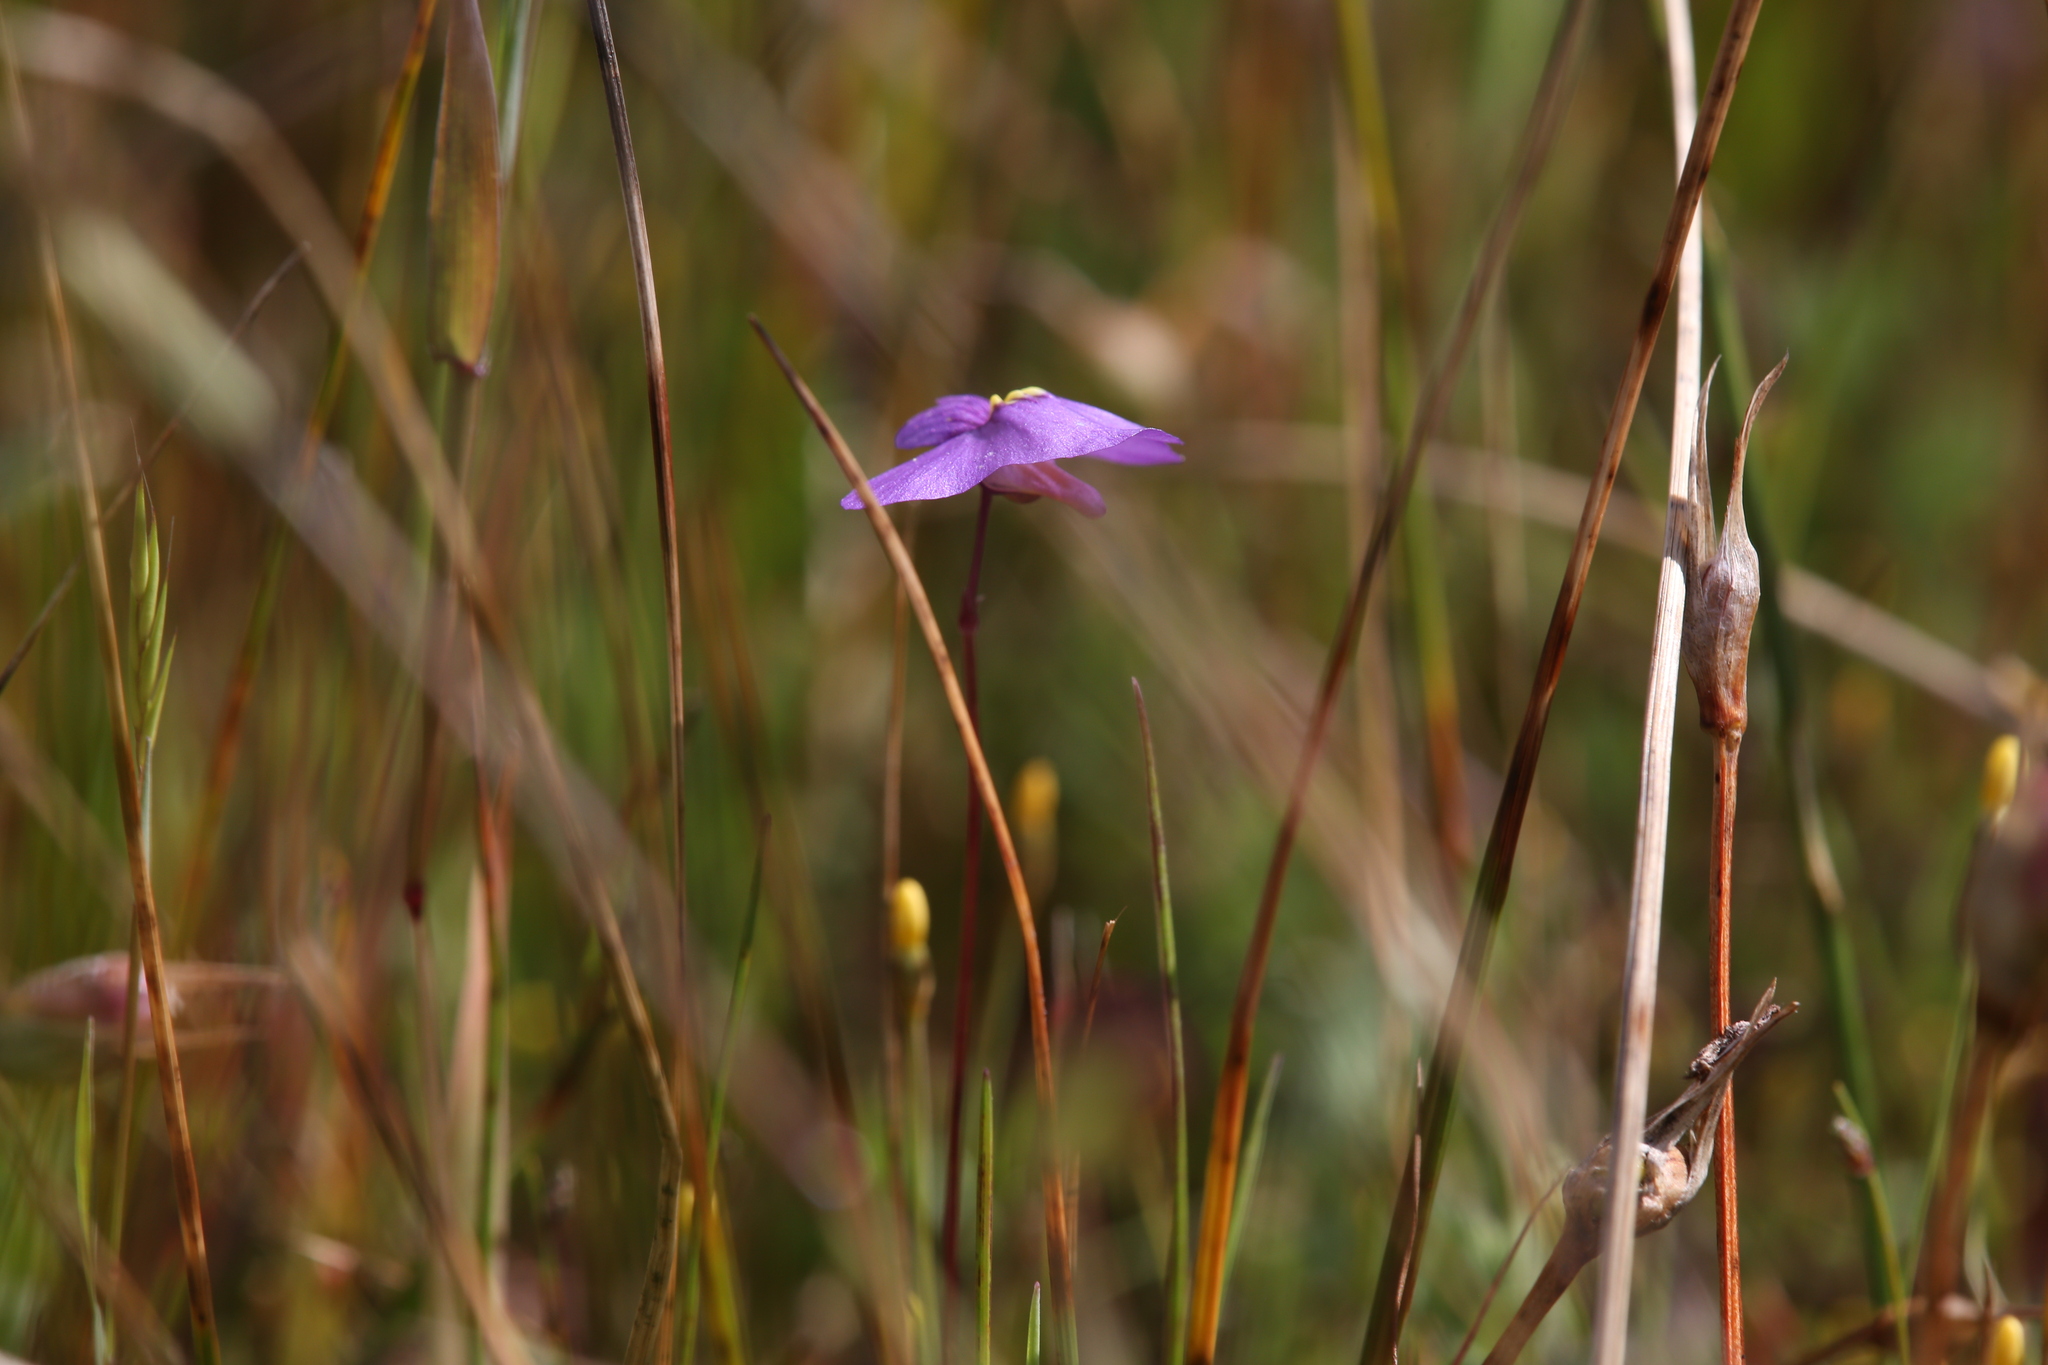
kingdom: Plantae
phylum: Tracheophyta
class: Magnoliopsida
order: Lamiales
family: Lentibulariaceae
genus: Utricularia
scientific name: Utricularia inaequalis
